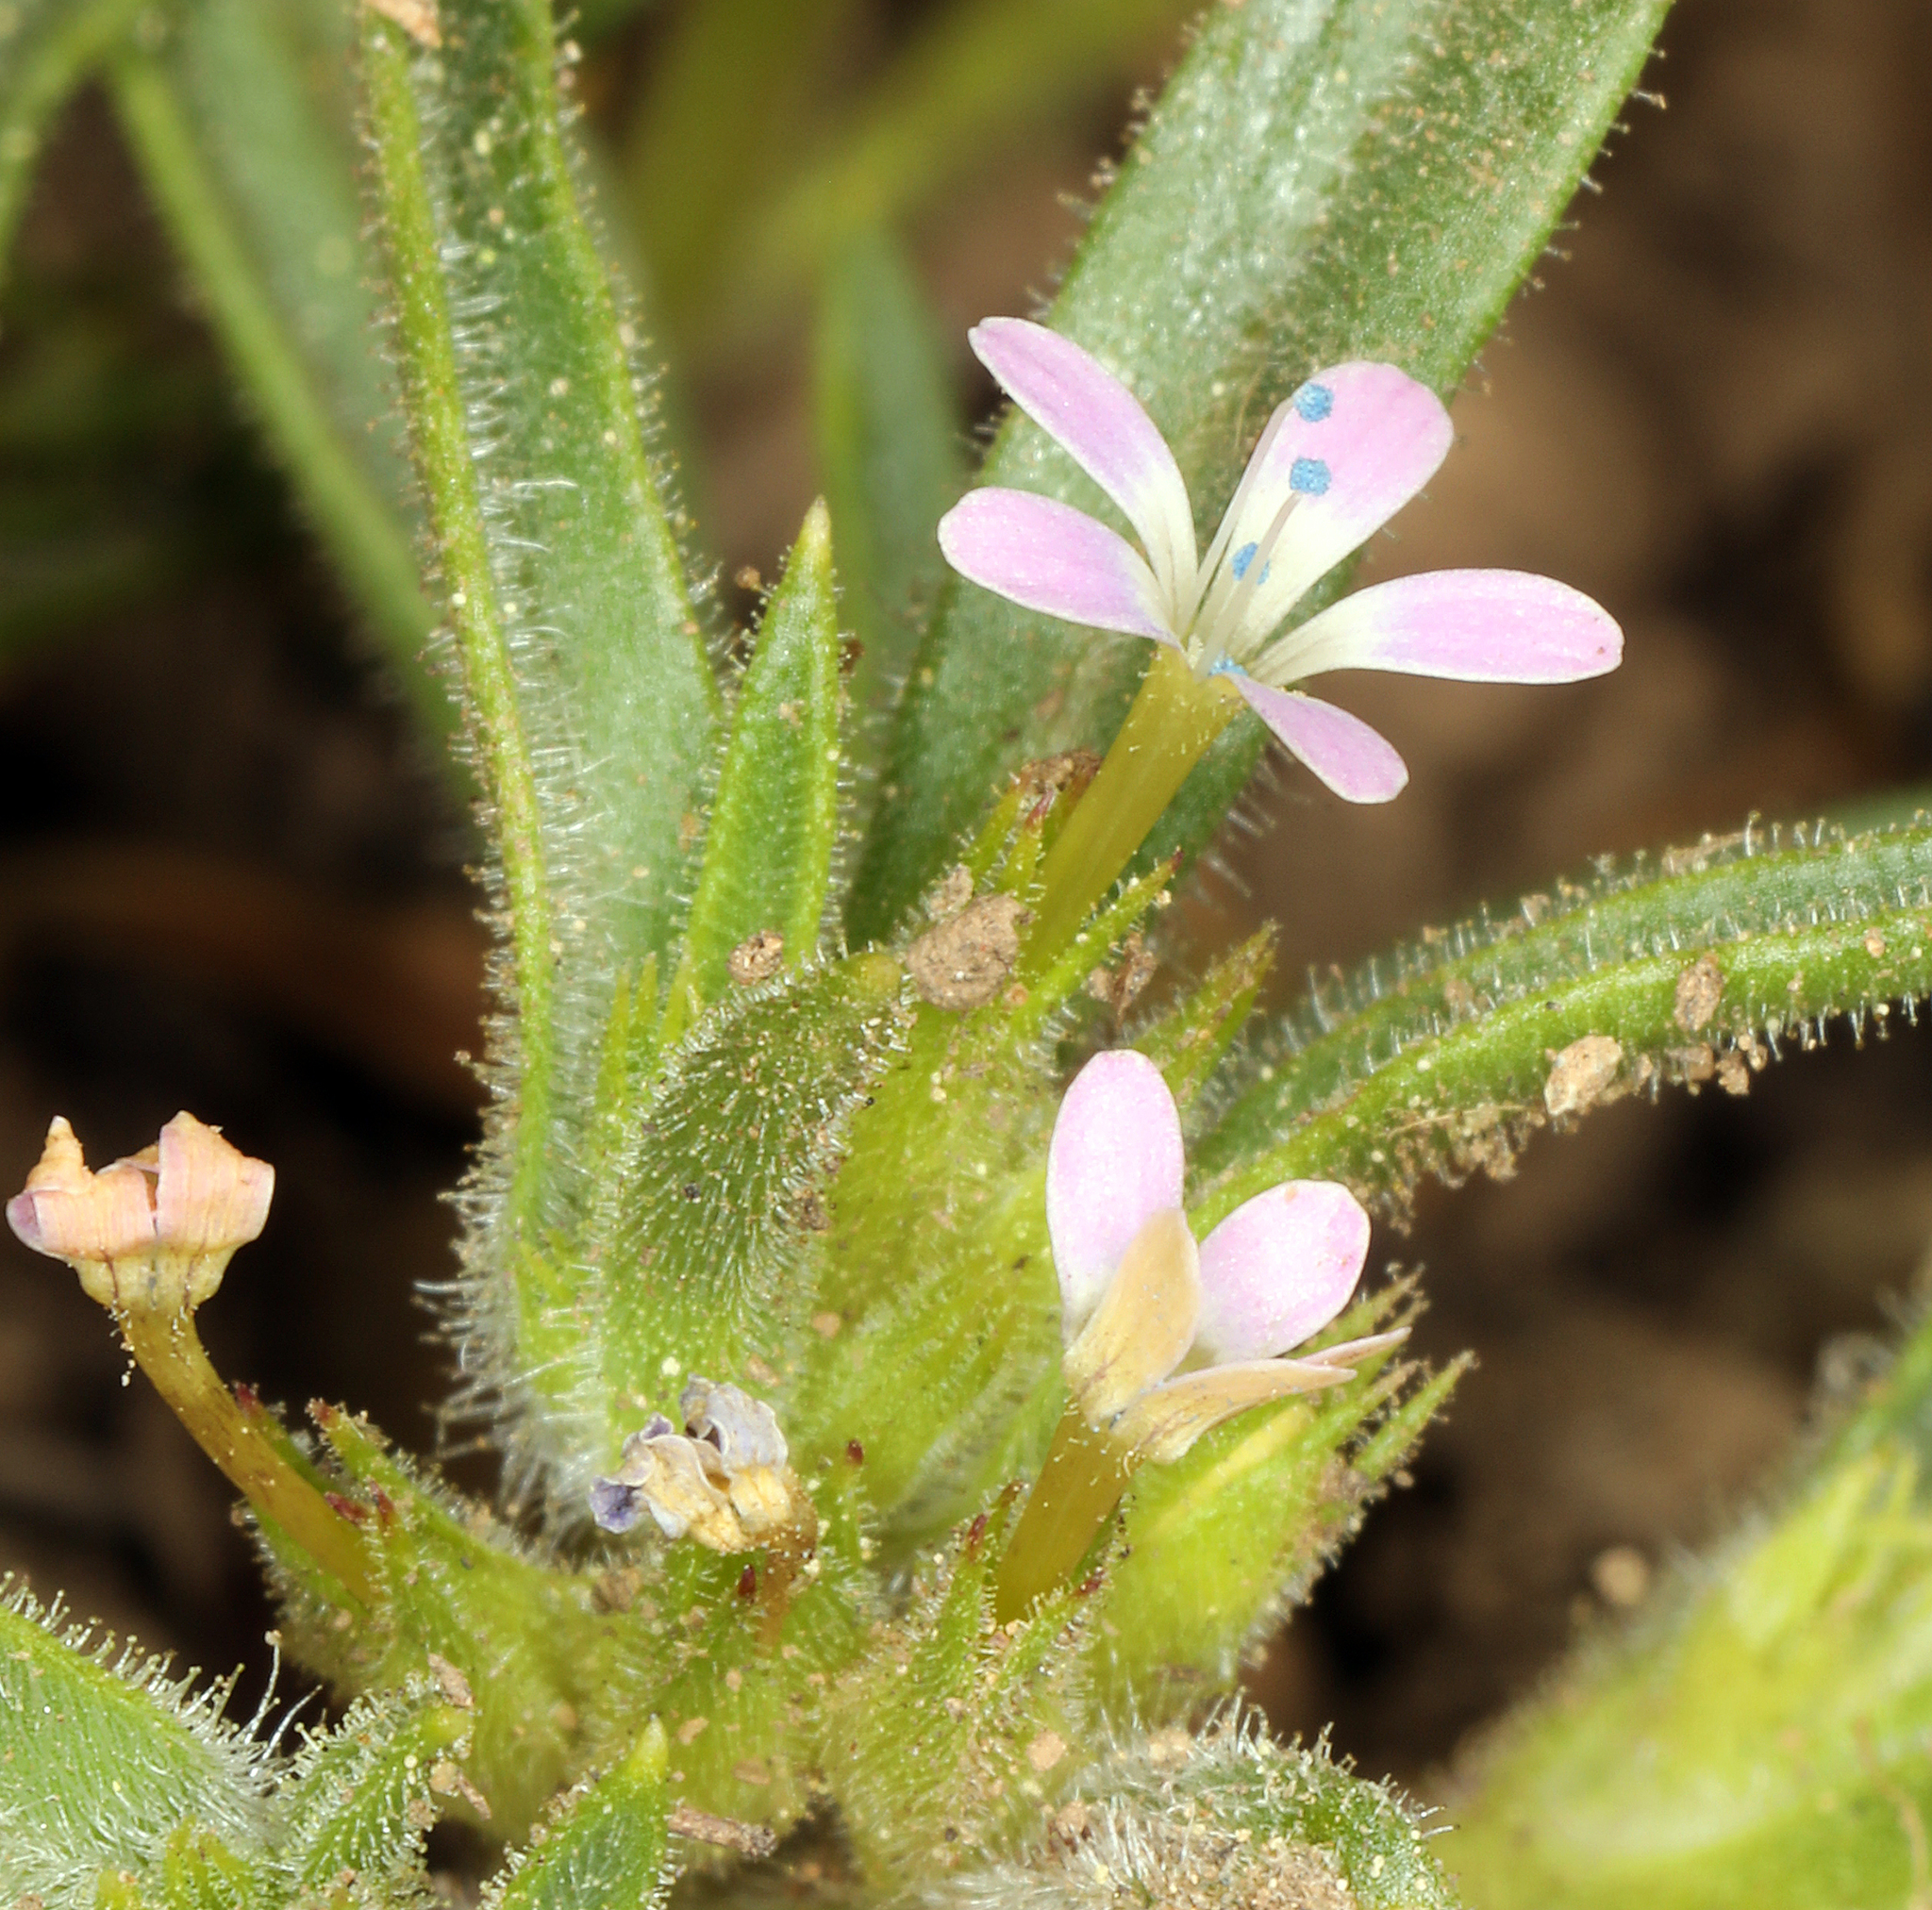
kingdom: Plantae
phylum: Tracheophyta
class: Magnoliopsida
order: Ericales
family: Polemoniaceae
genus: Collomia
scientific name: Collomia tinctoria
